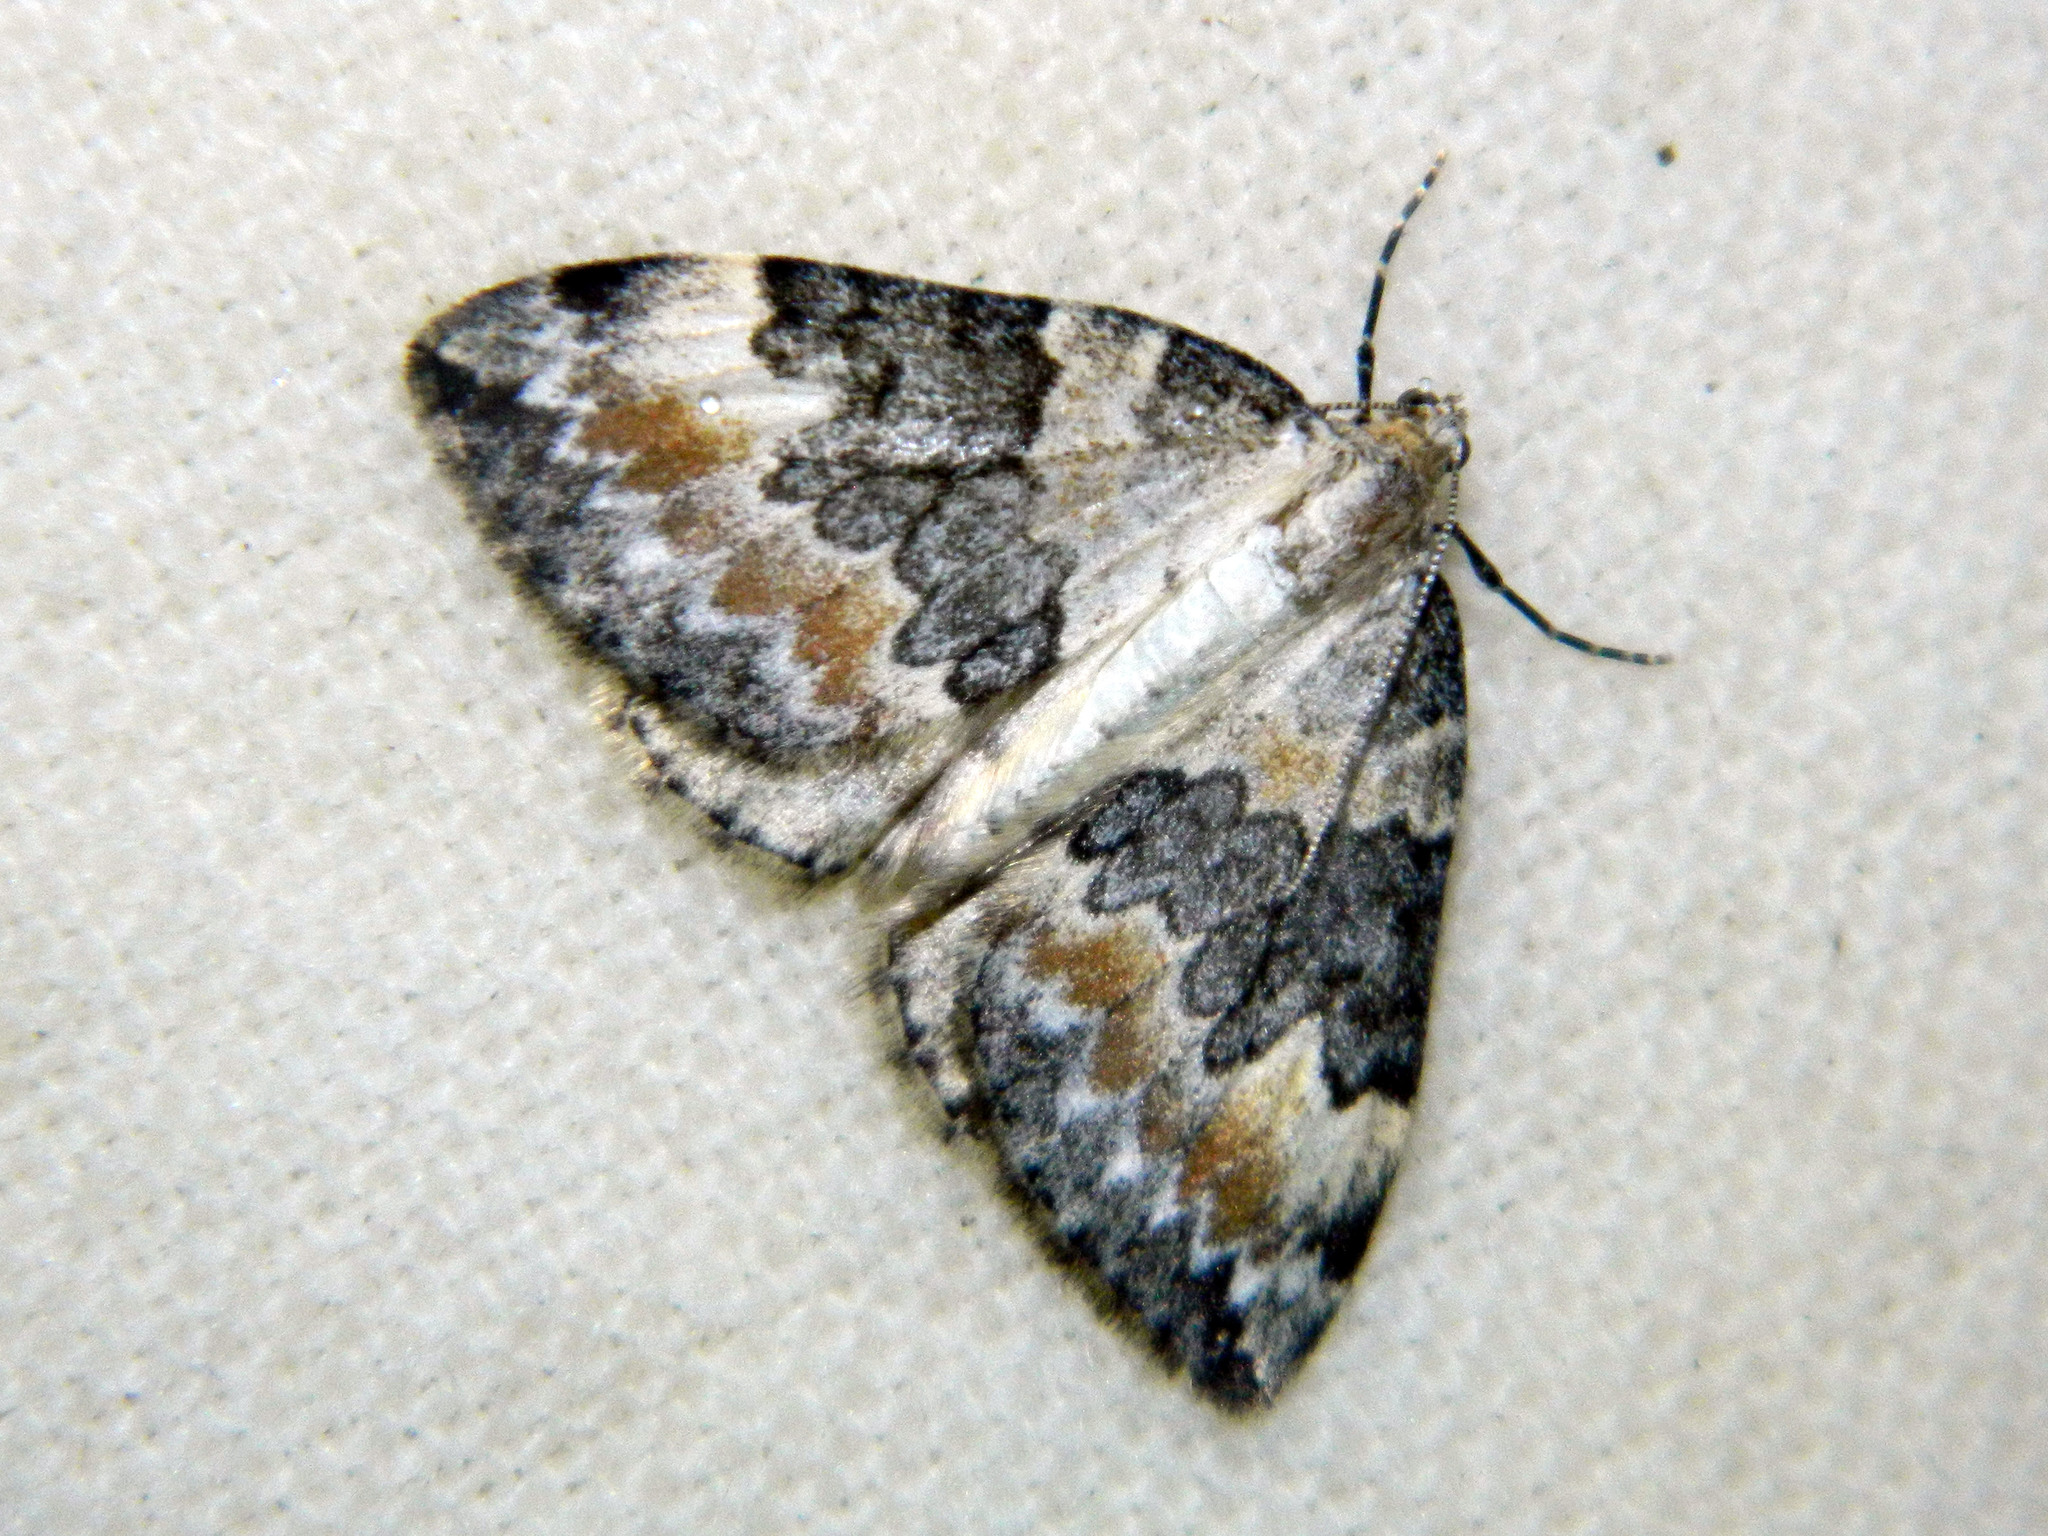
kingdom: Animalia
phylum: Arthropoda
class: Insecta
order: Lepidoptera
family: Geometridae
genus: Dysstroma
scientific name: Dysstroma brunneata
